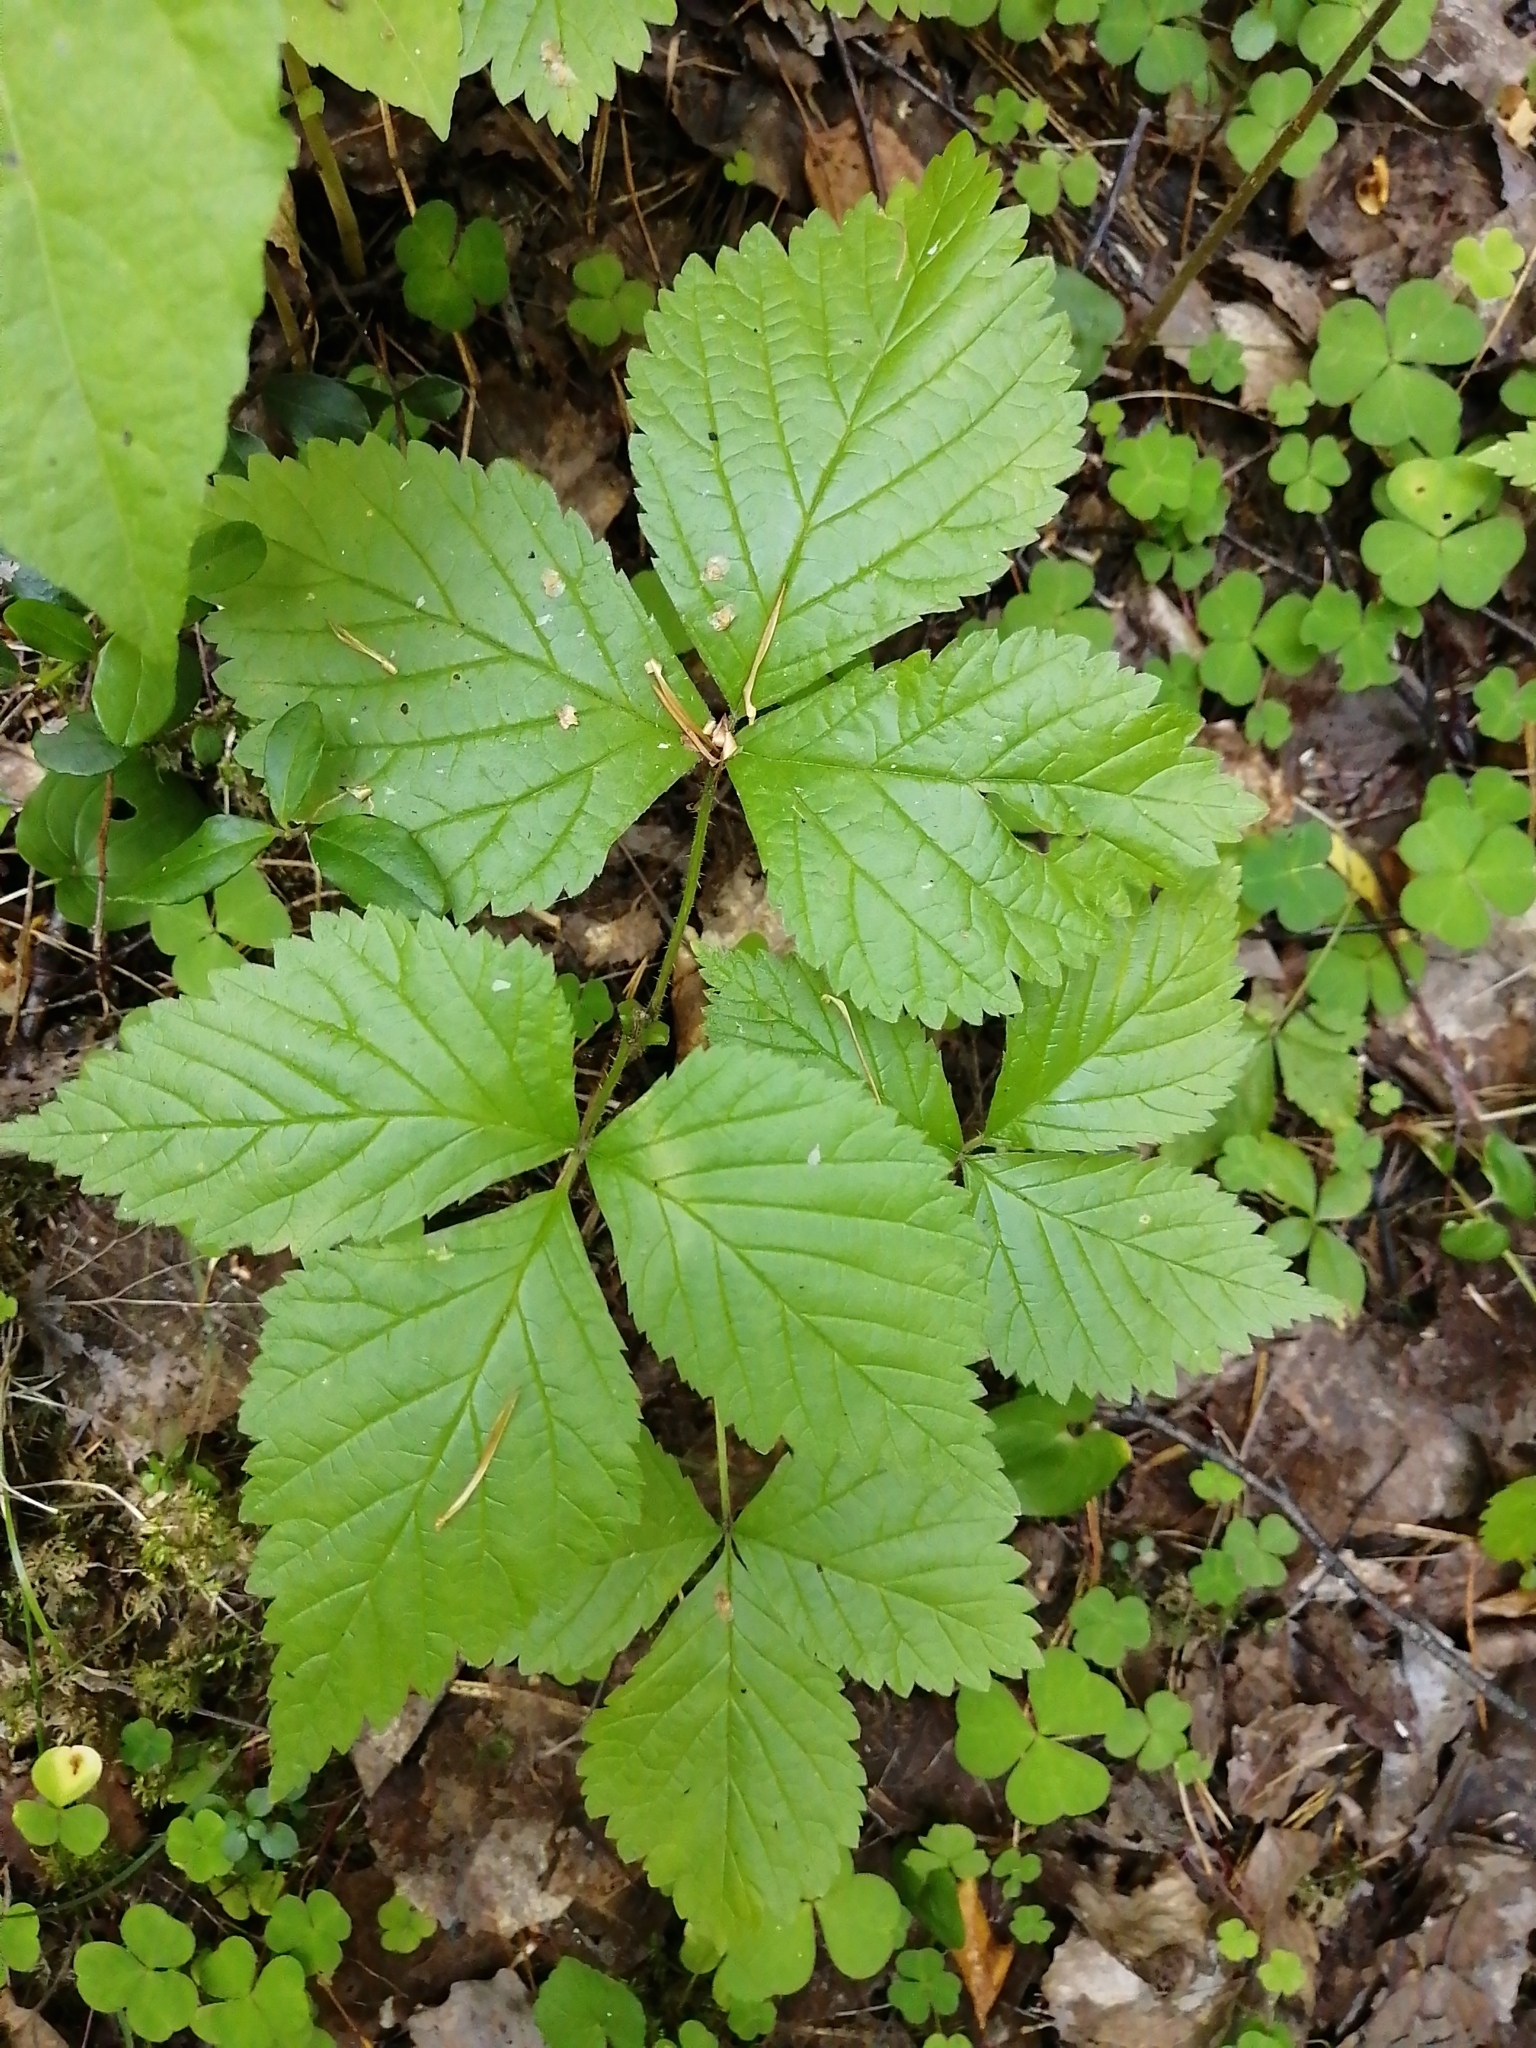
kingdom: Plantae
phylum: Tracheophyta
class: Magnoliopsida
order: Rosales
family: Rosaceae
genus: Rubus
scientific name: Rubus saxatilis
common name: Stone bramble
